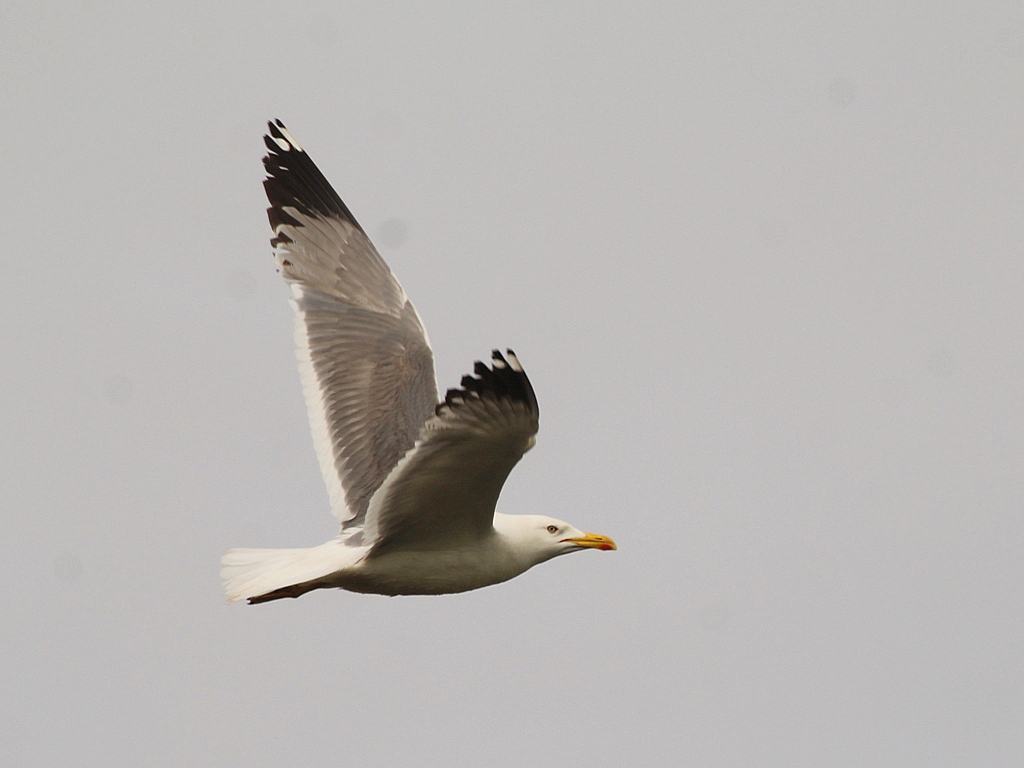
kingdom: Animalia
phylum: Chordata
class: Aves
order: Charadriiformes
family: Laridae
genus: Larus
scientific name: Larus fuscus
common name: Lesser black-backed gull
